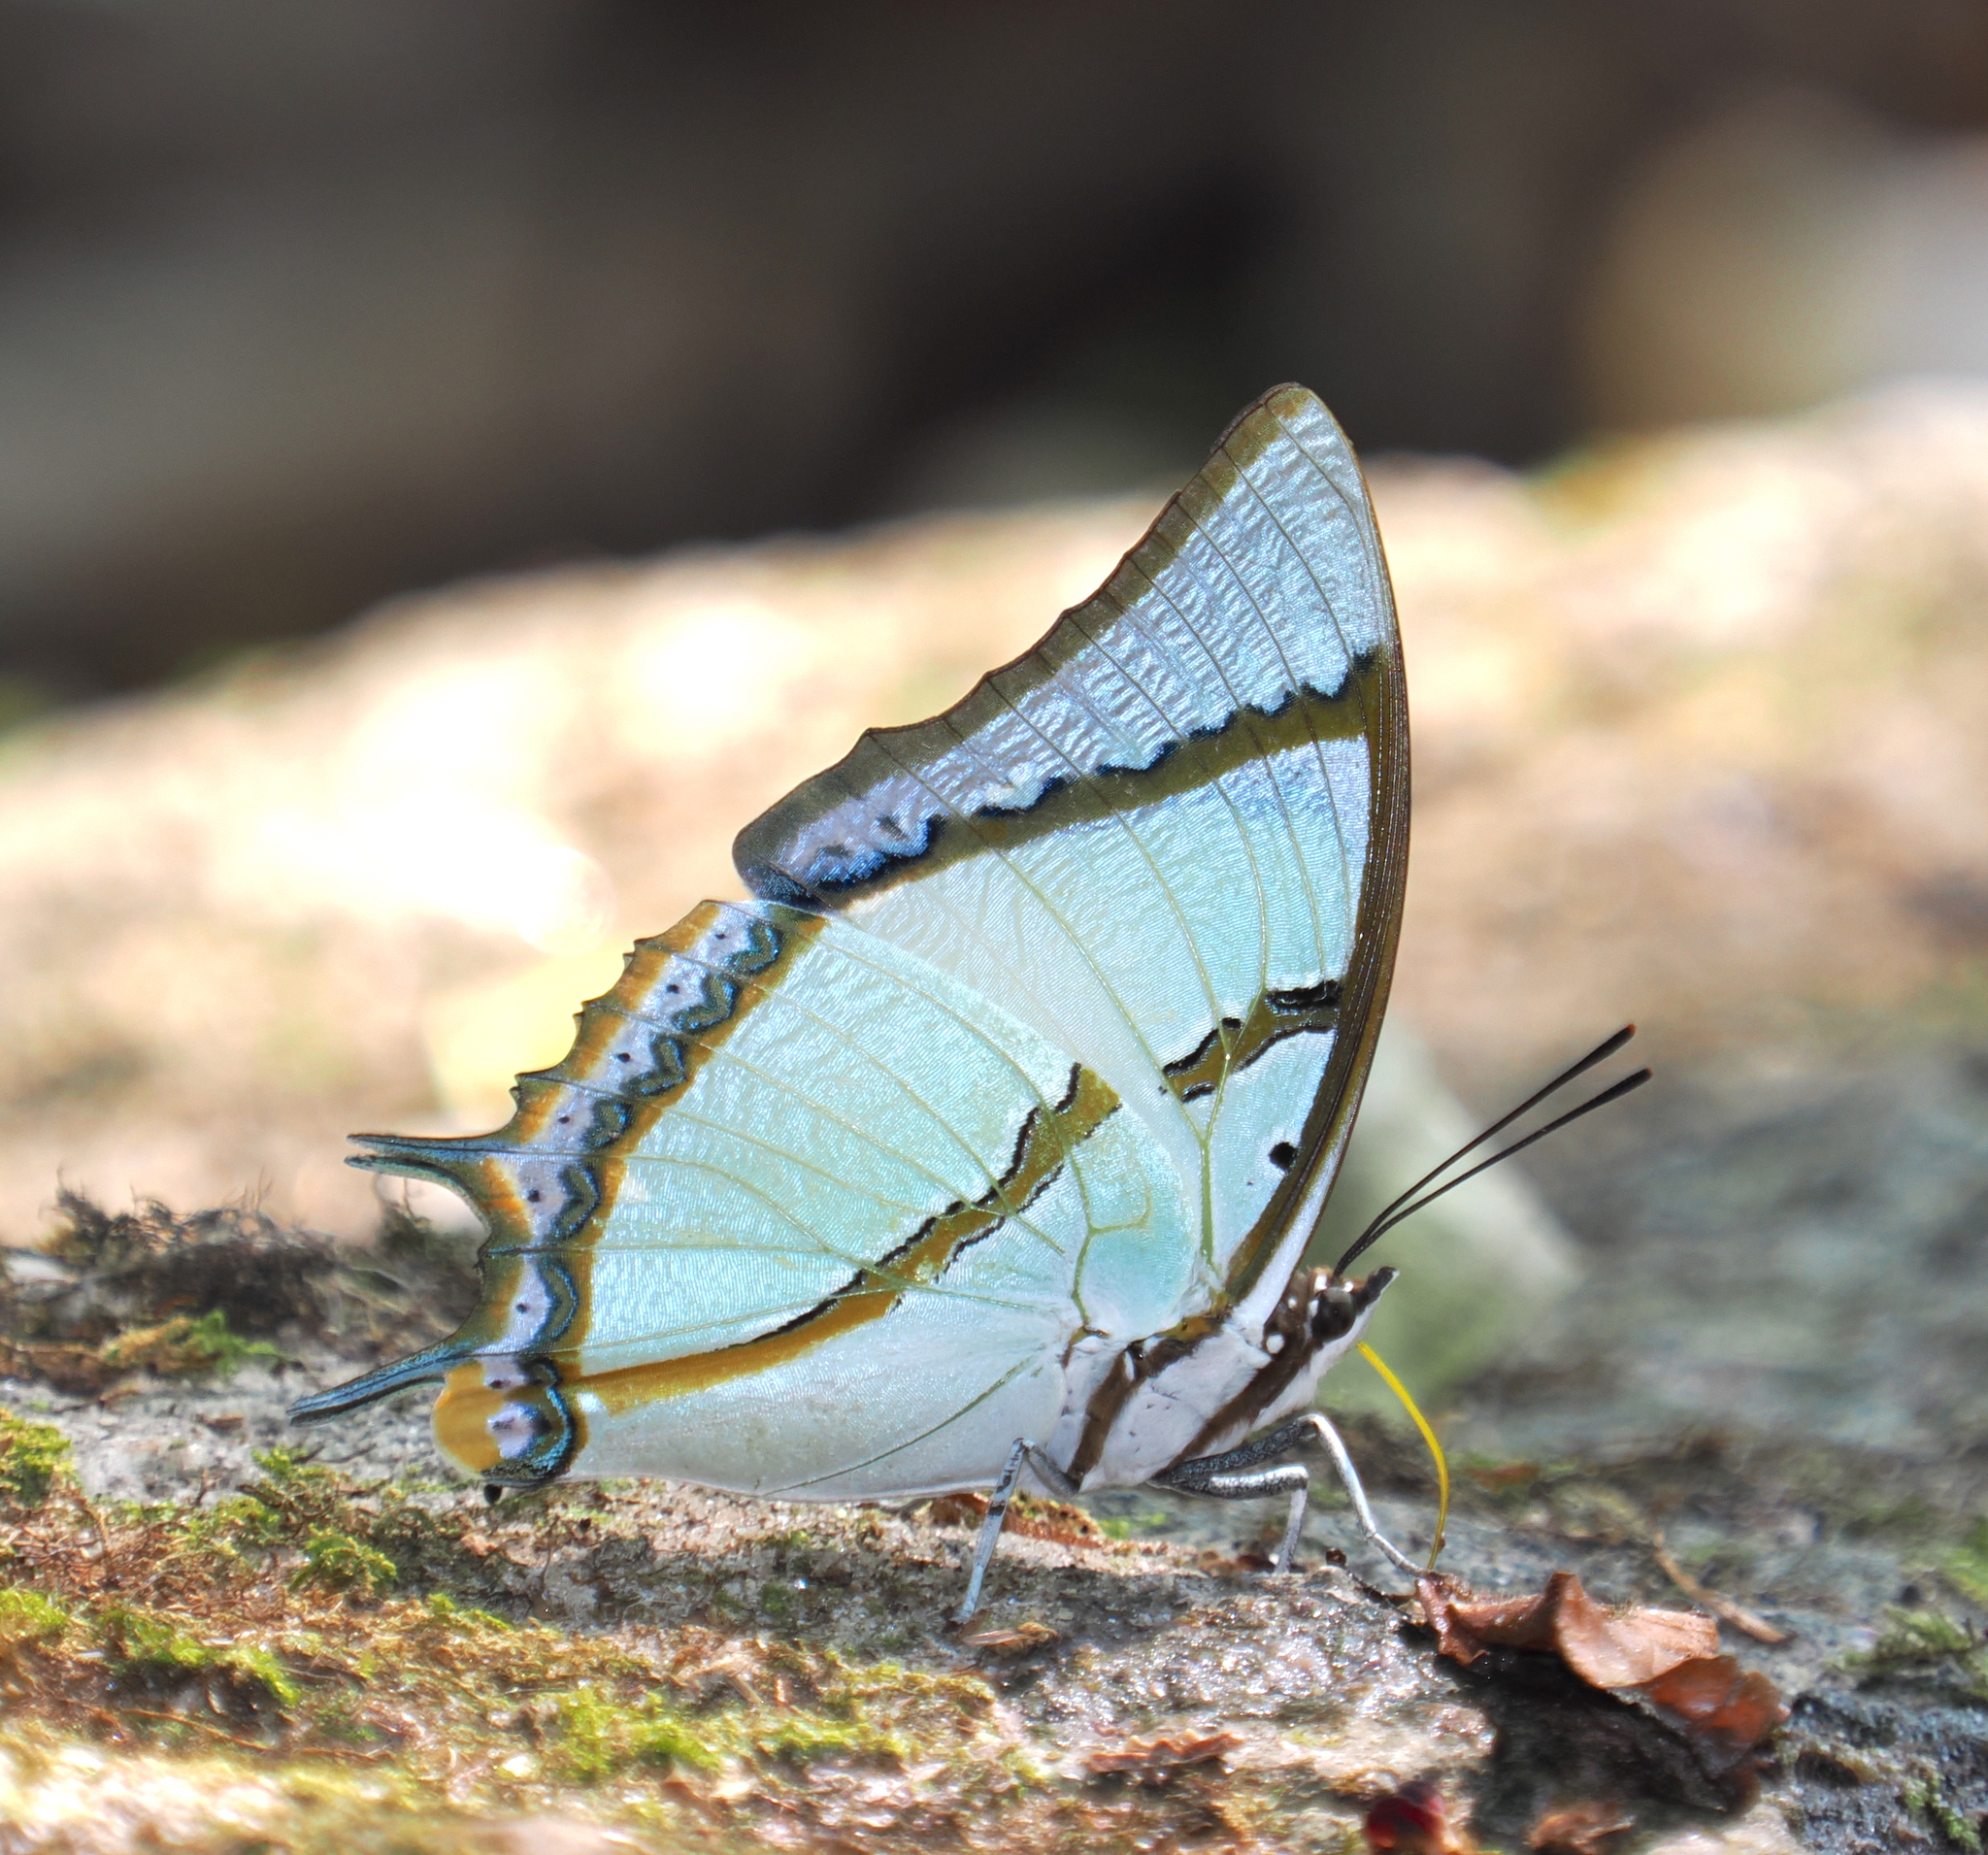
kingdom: Animalia
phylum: Arthropoda
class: Insecta
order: Lepidoptera
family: Nymphalidae
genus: Polyura
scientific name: Polyura dolon
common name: Stately nawab
